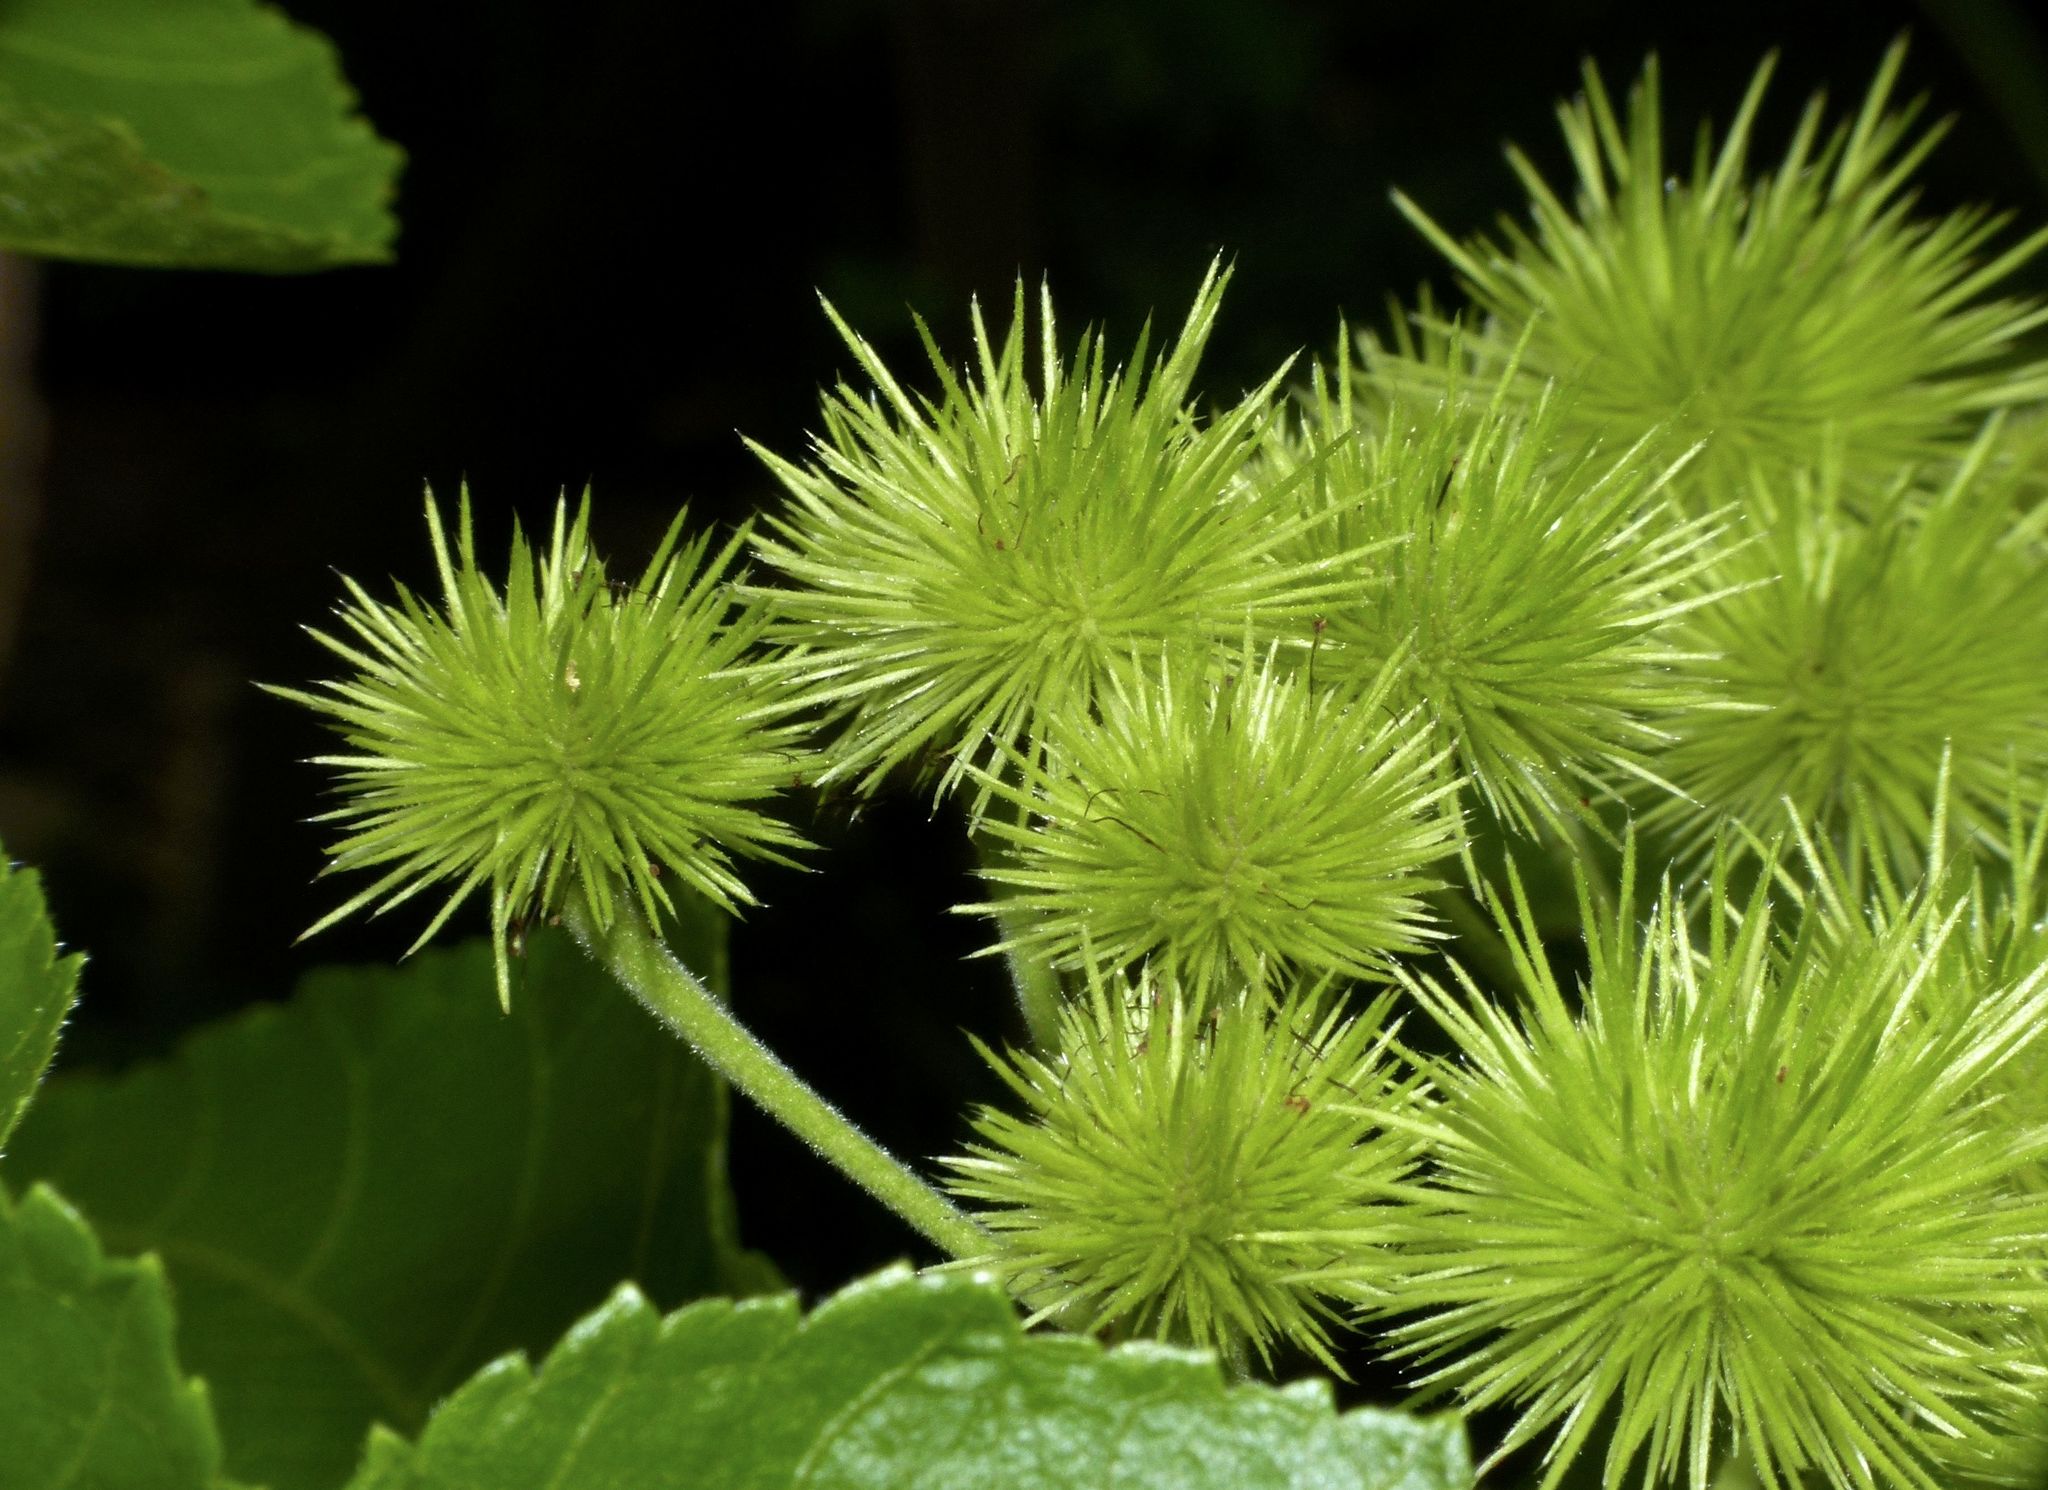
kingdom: Plantae
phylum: Tracheophyta
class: Magnoliopsida
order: Malvales
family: Malvaceae
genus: Entelea
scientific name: Entelea arborescens
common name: New zealand-mulberry
